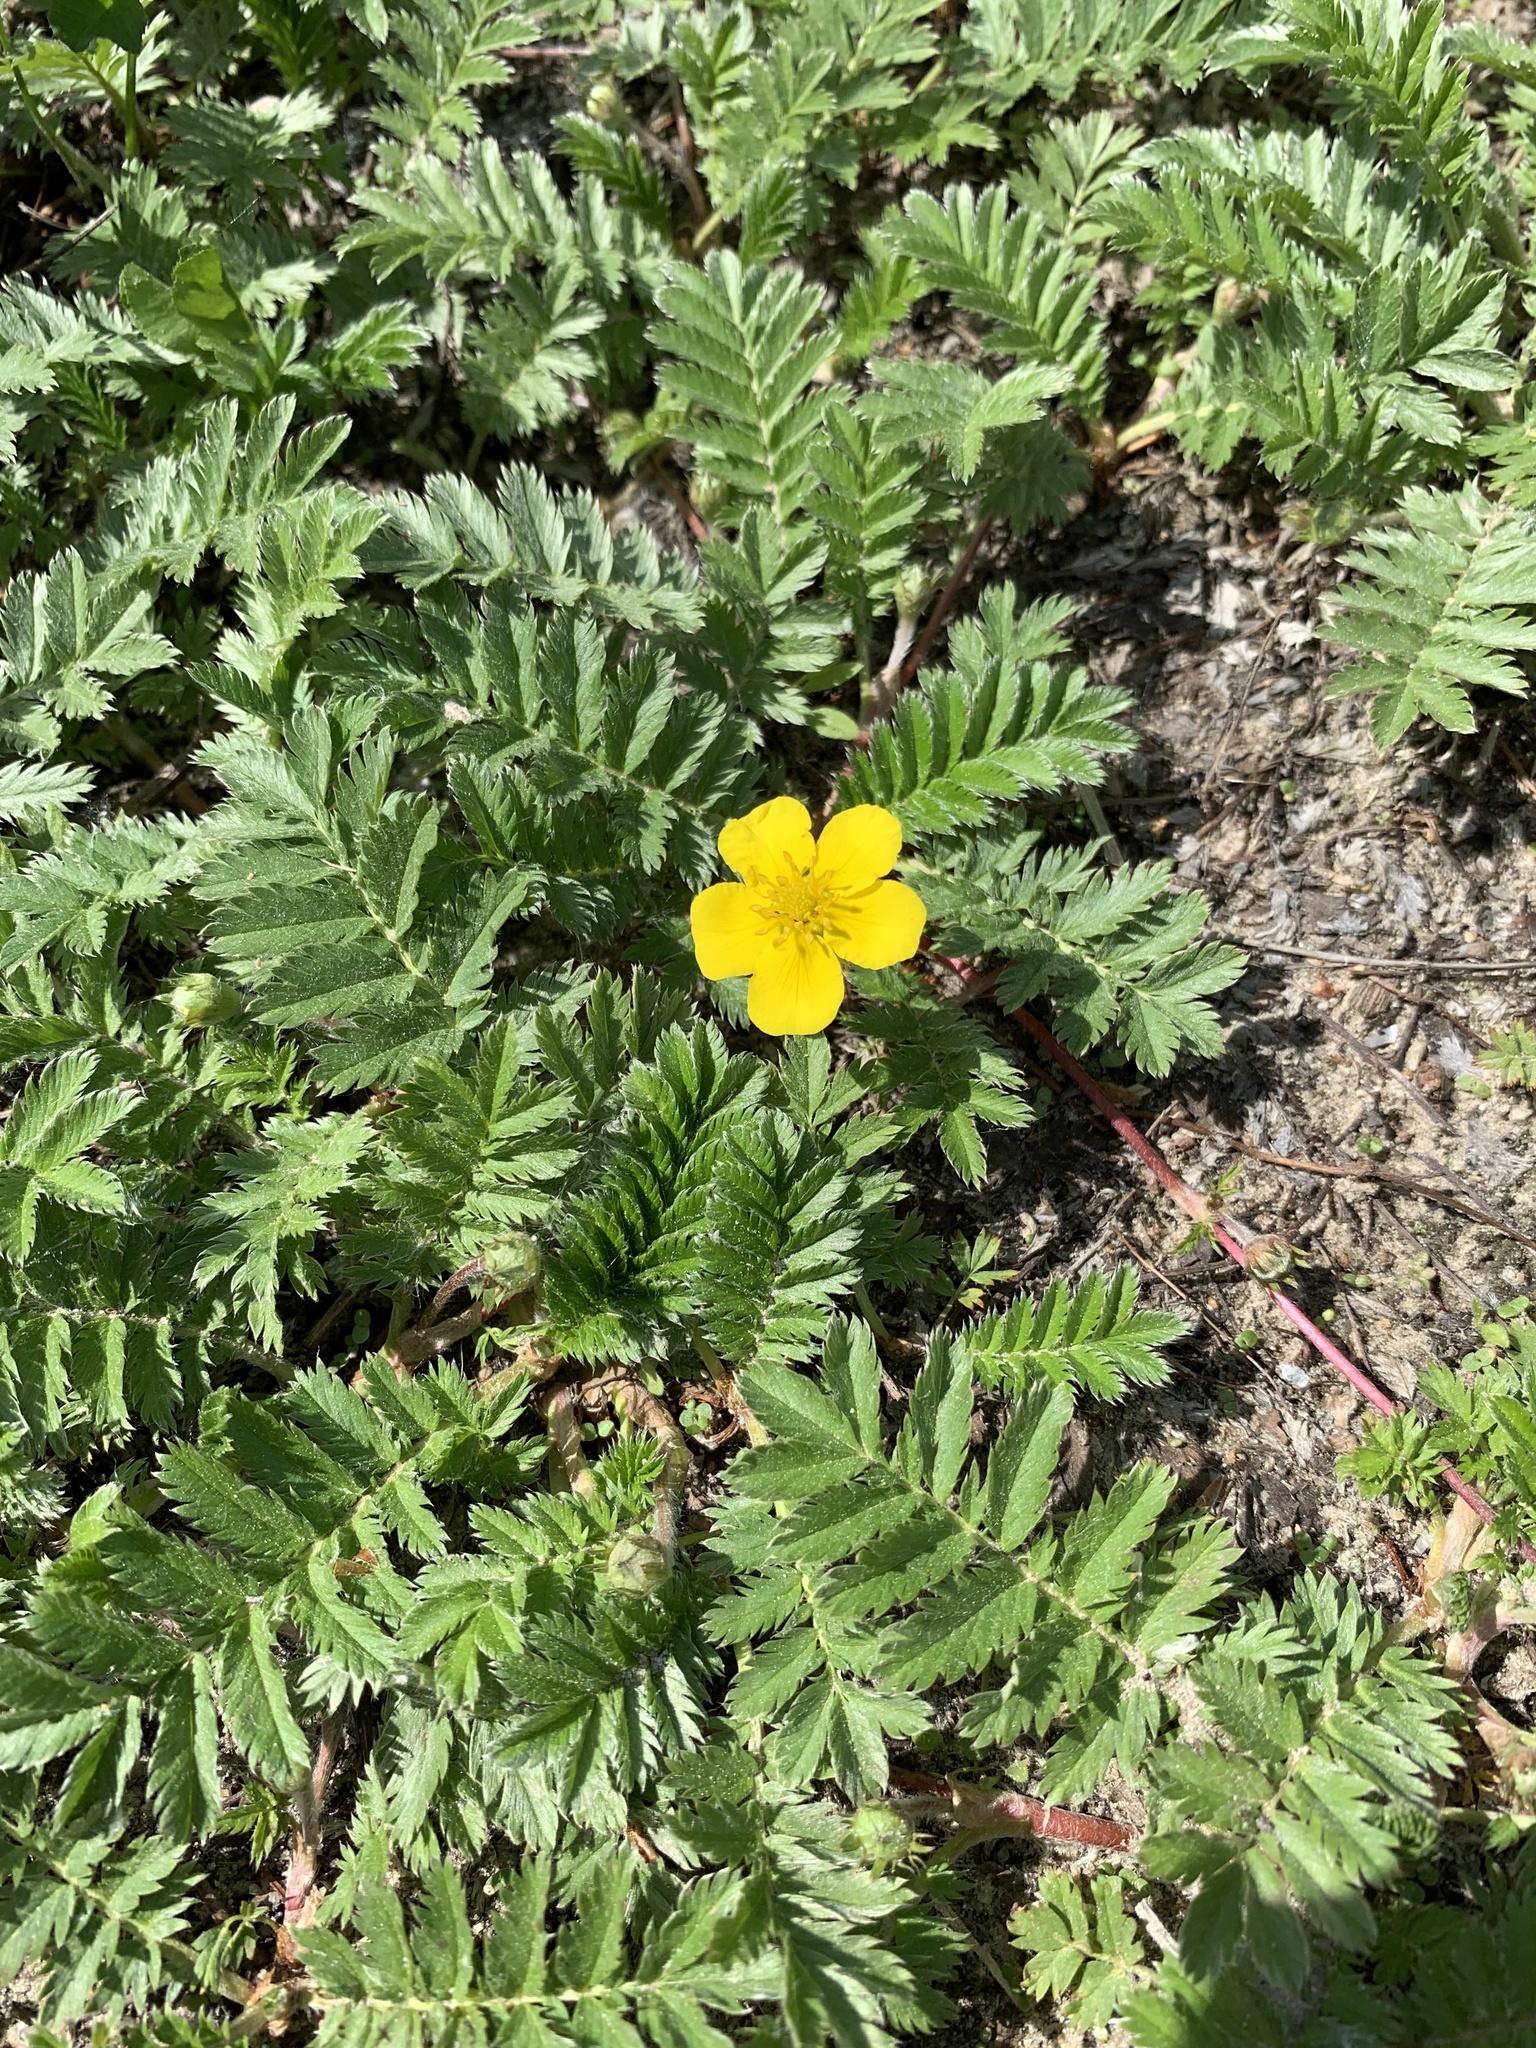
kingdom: Plantae
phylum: Tracheophyta
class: Magnoliopsida
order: Rosales
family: Rosaceae
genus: Argentina
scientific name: Argentina anserina
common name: Common silverweed
